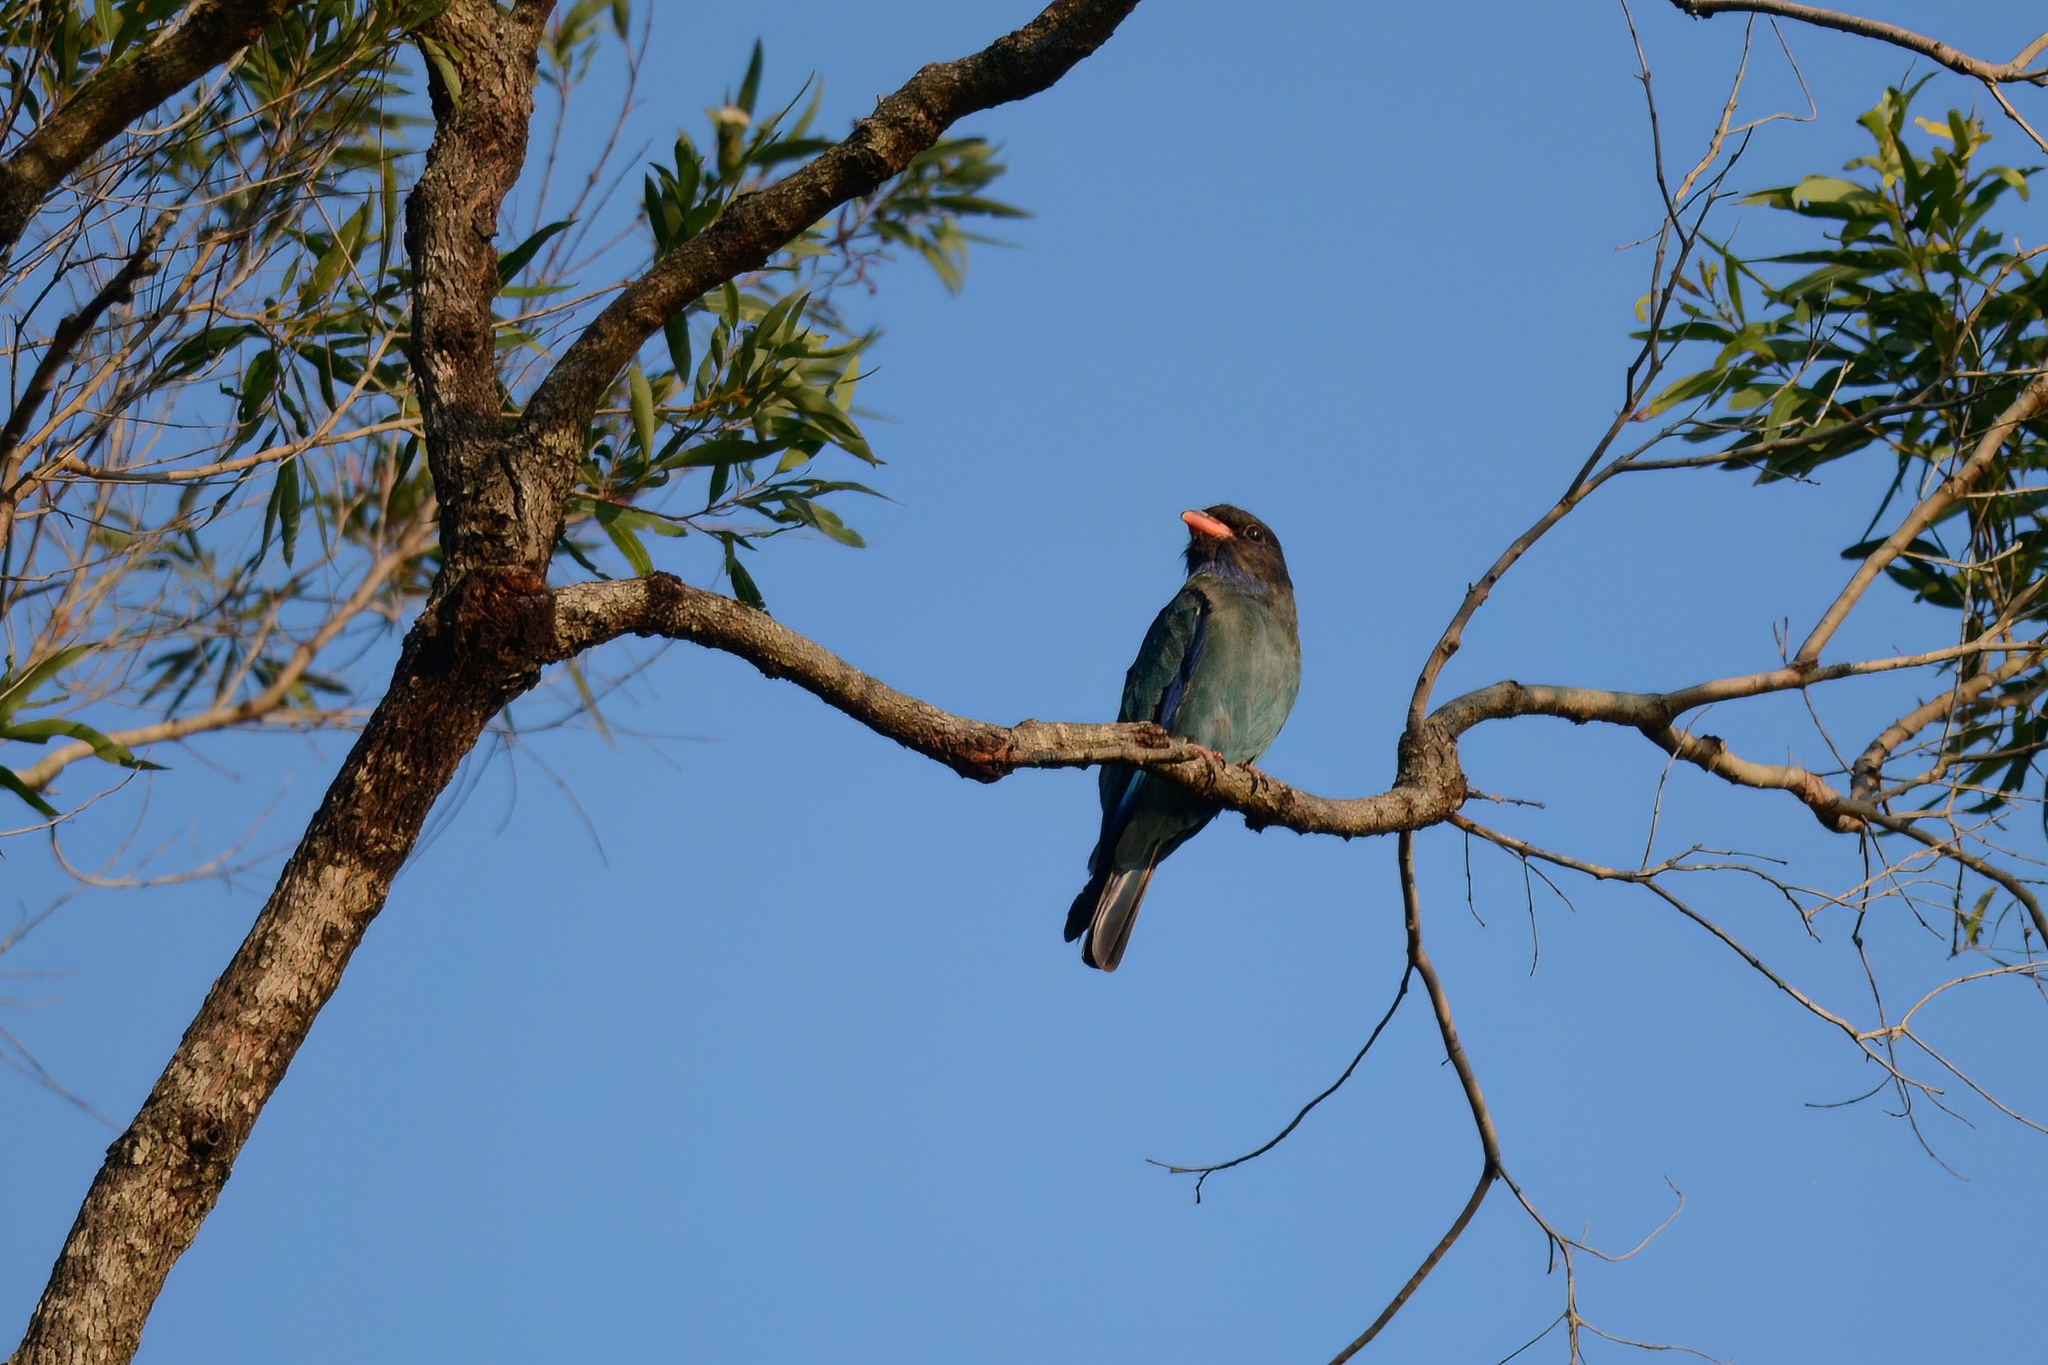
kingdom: Animalia
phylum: Chordata
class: Aves
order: Coraciiformes
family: Coraciidae
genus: Eurystomus
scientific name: Eurystomus orientalis
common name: Oriental dollarbird
